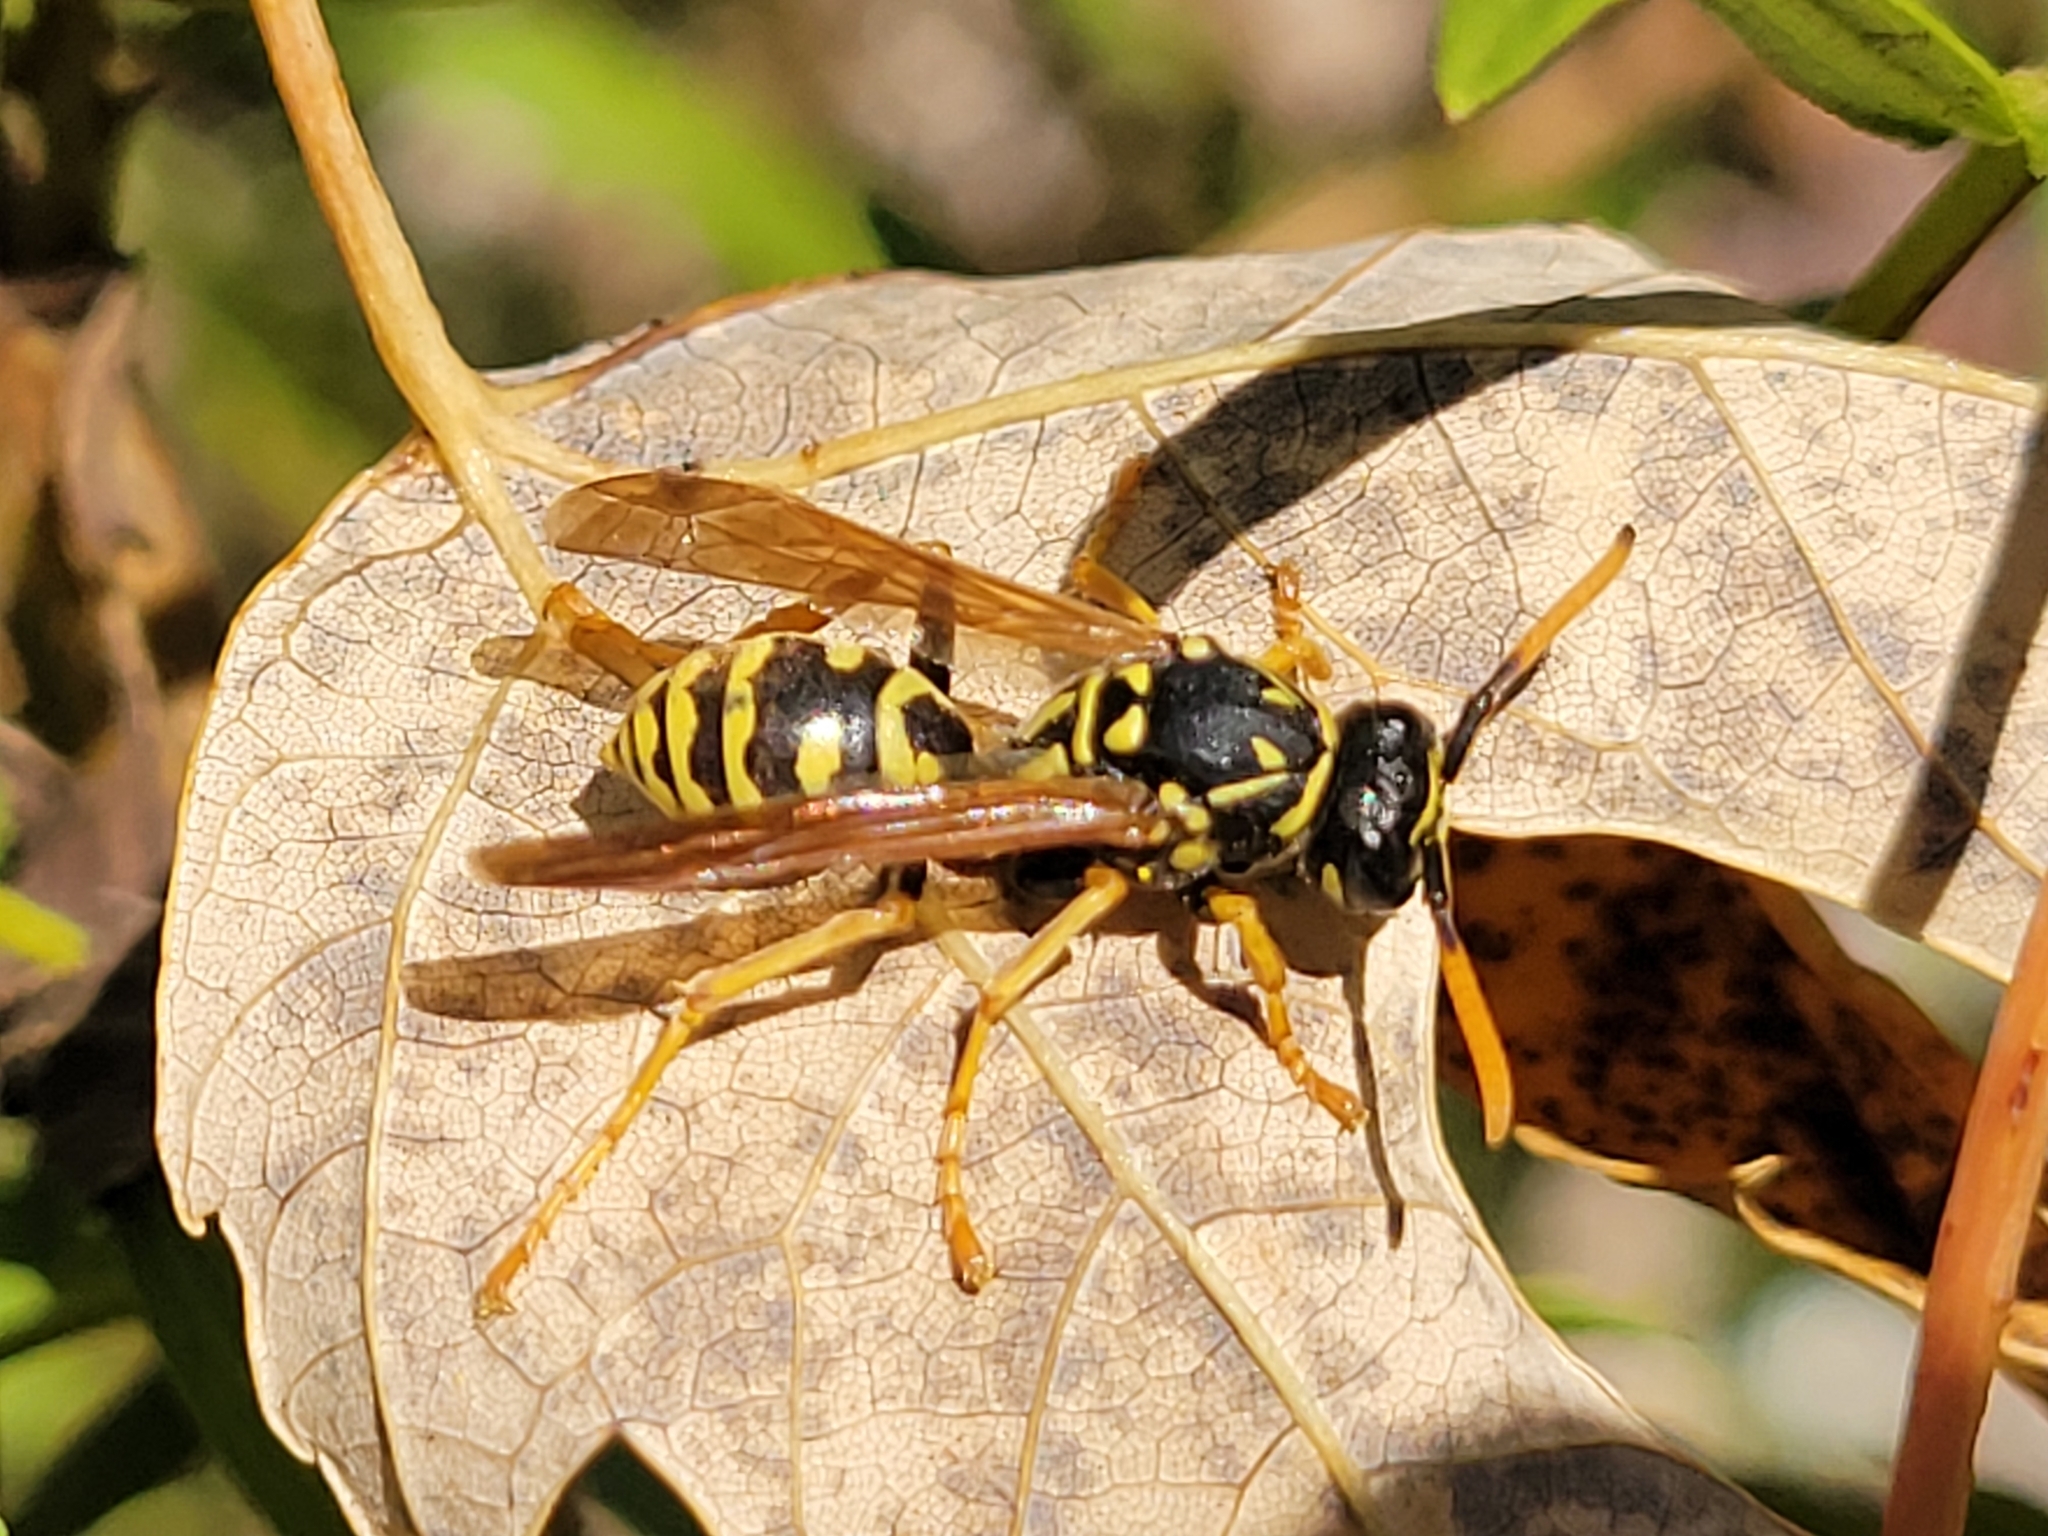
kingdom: Animalia
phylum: Arthropoda
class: Insecta
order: Hymenoptera
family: Eumenidae
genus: Polistes
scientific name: Polistes dominula
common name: Paper wasp
